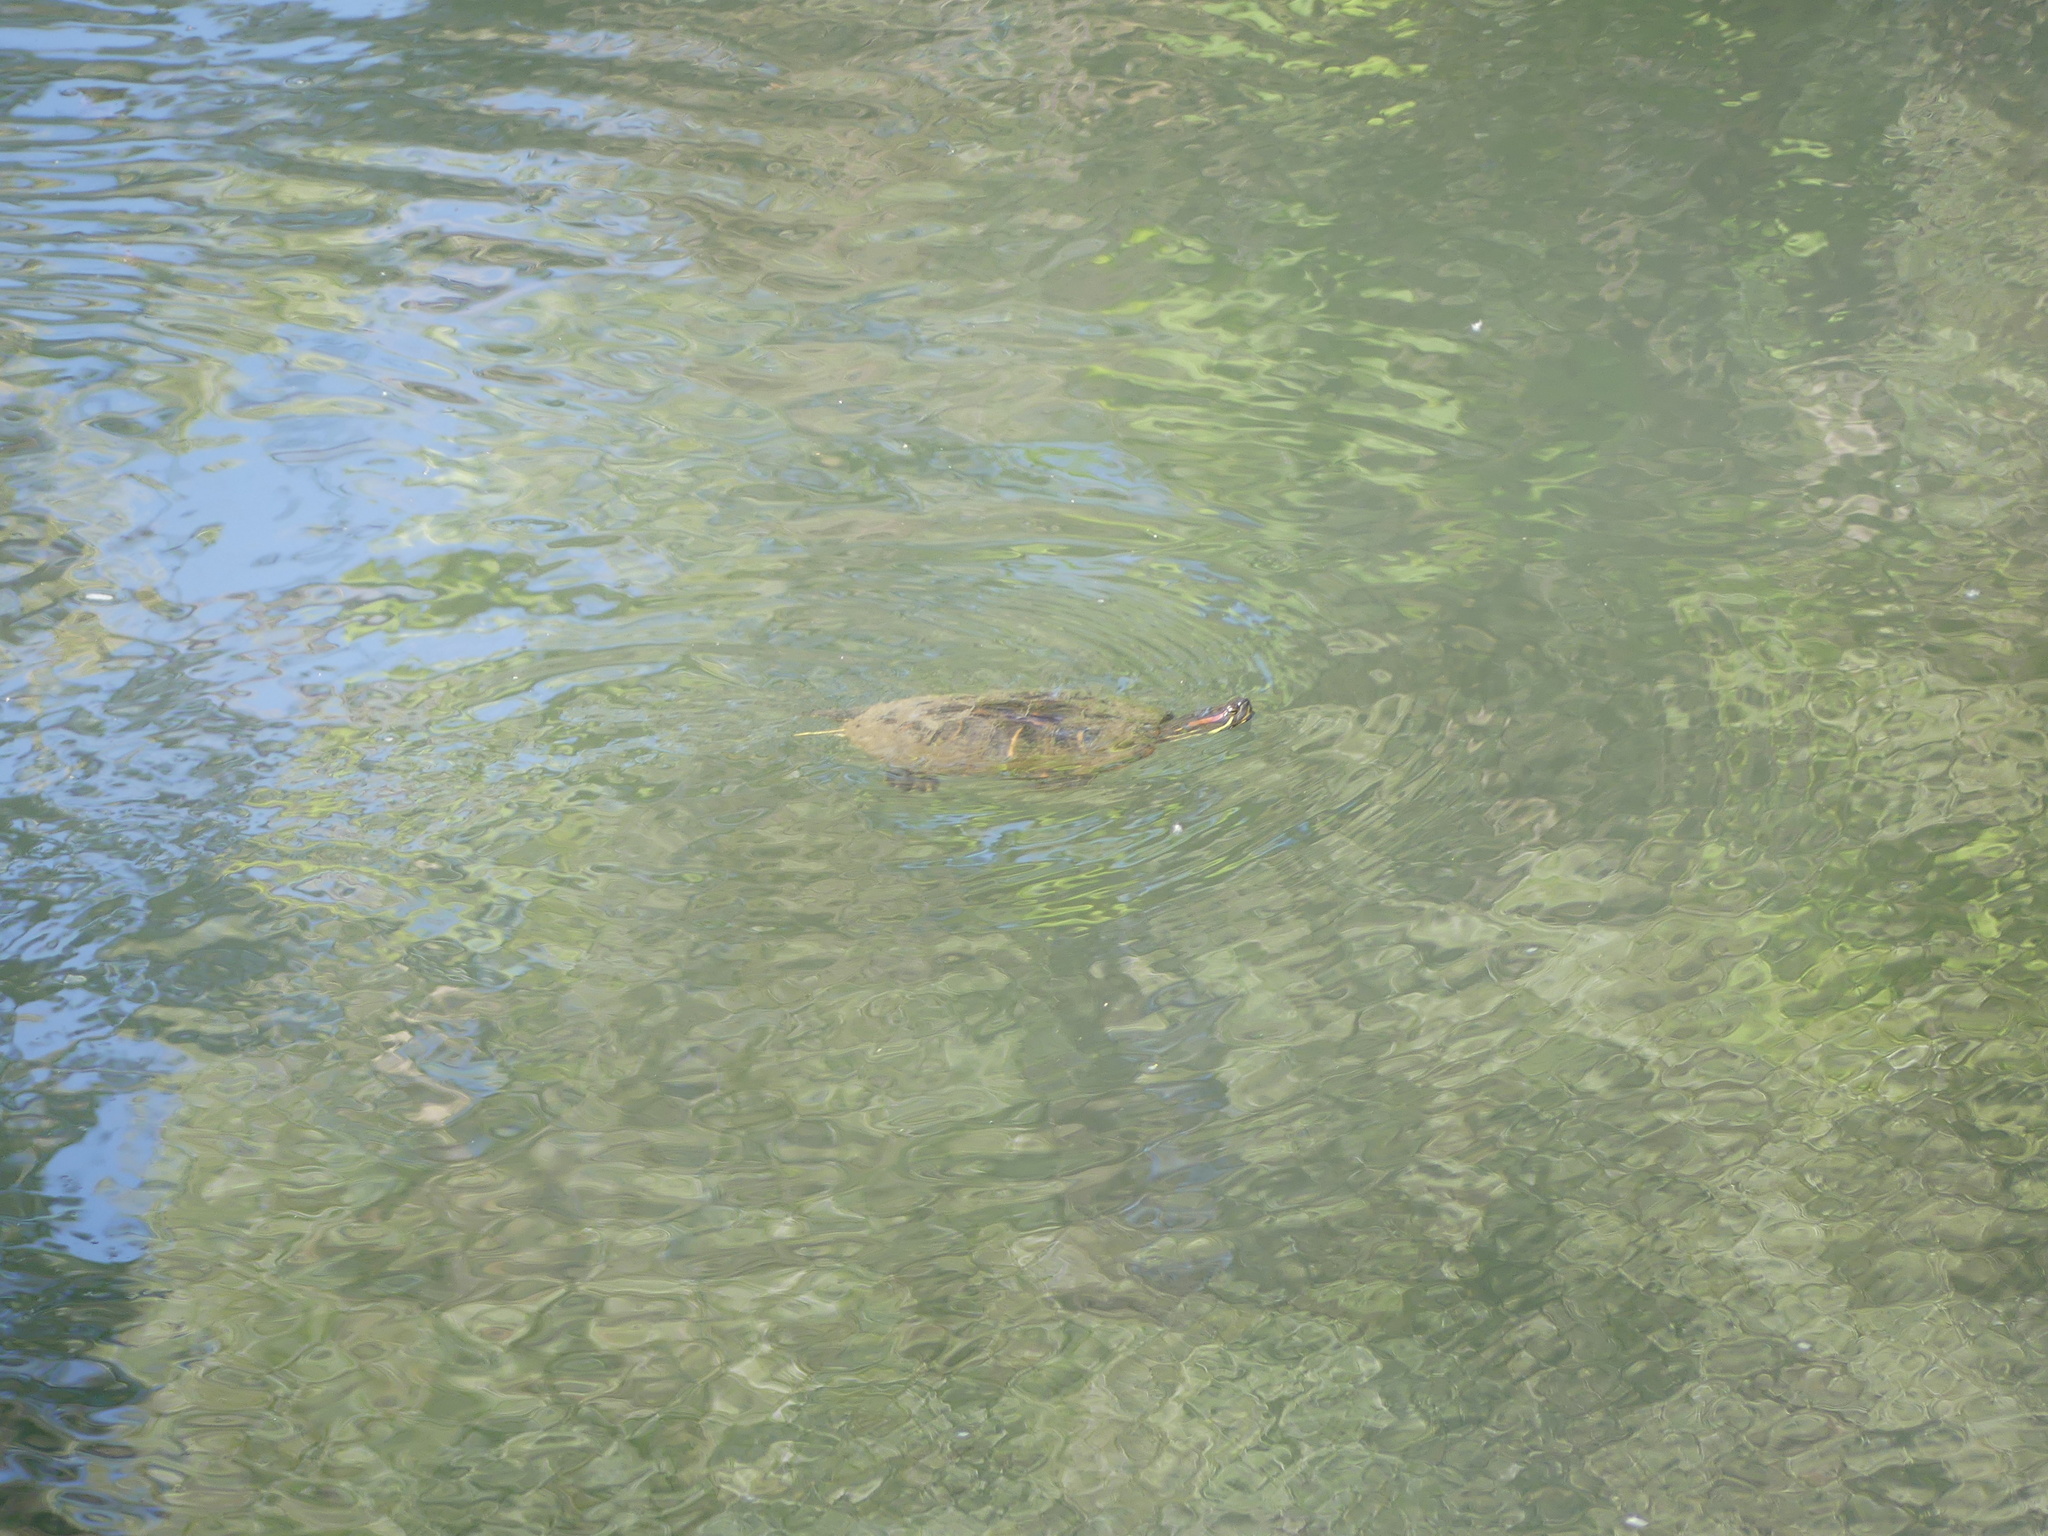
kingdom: Animalia
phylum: Chordata
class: Testudines
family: Emydidae
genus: Trachemys
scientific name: Trachemys scripta
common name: Slider
